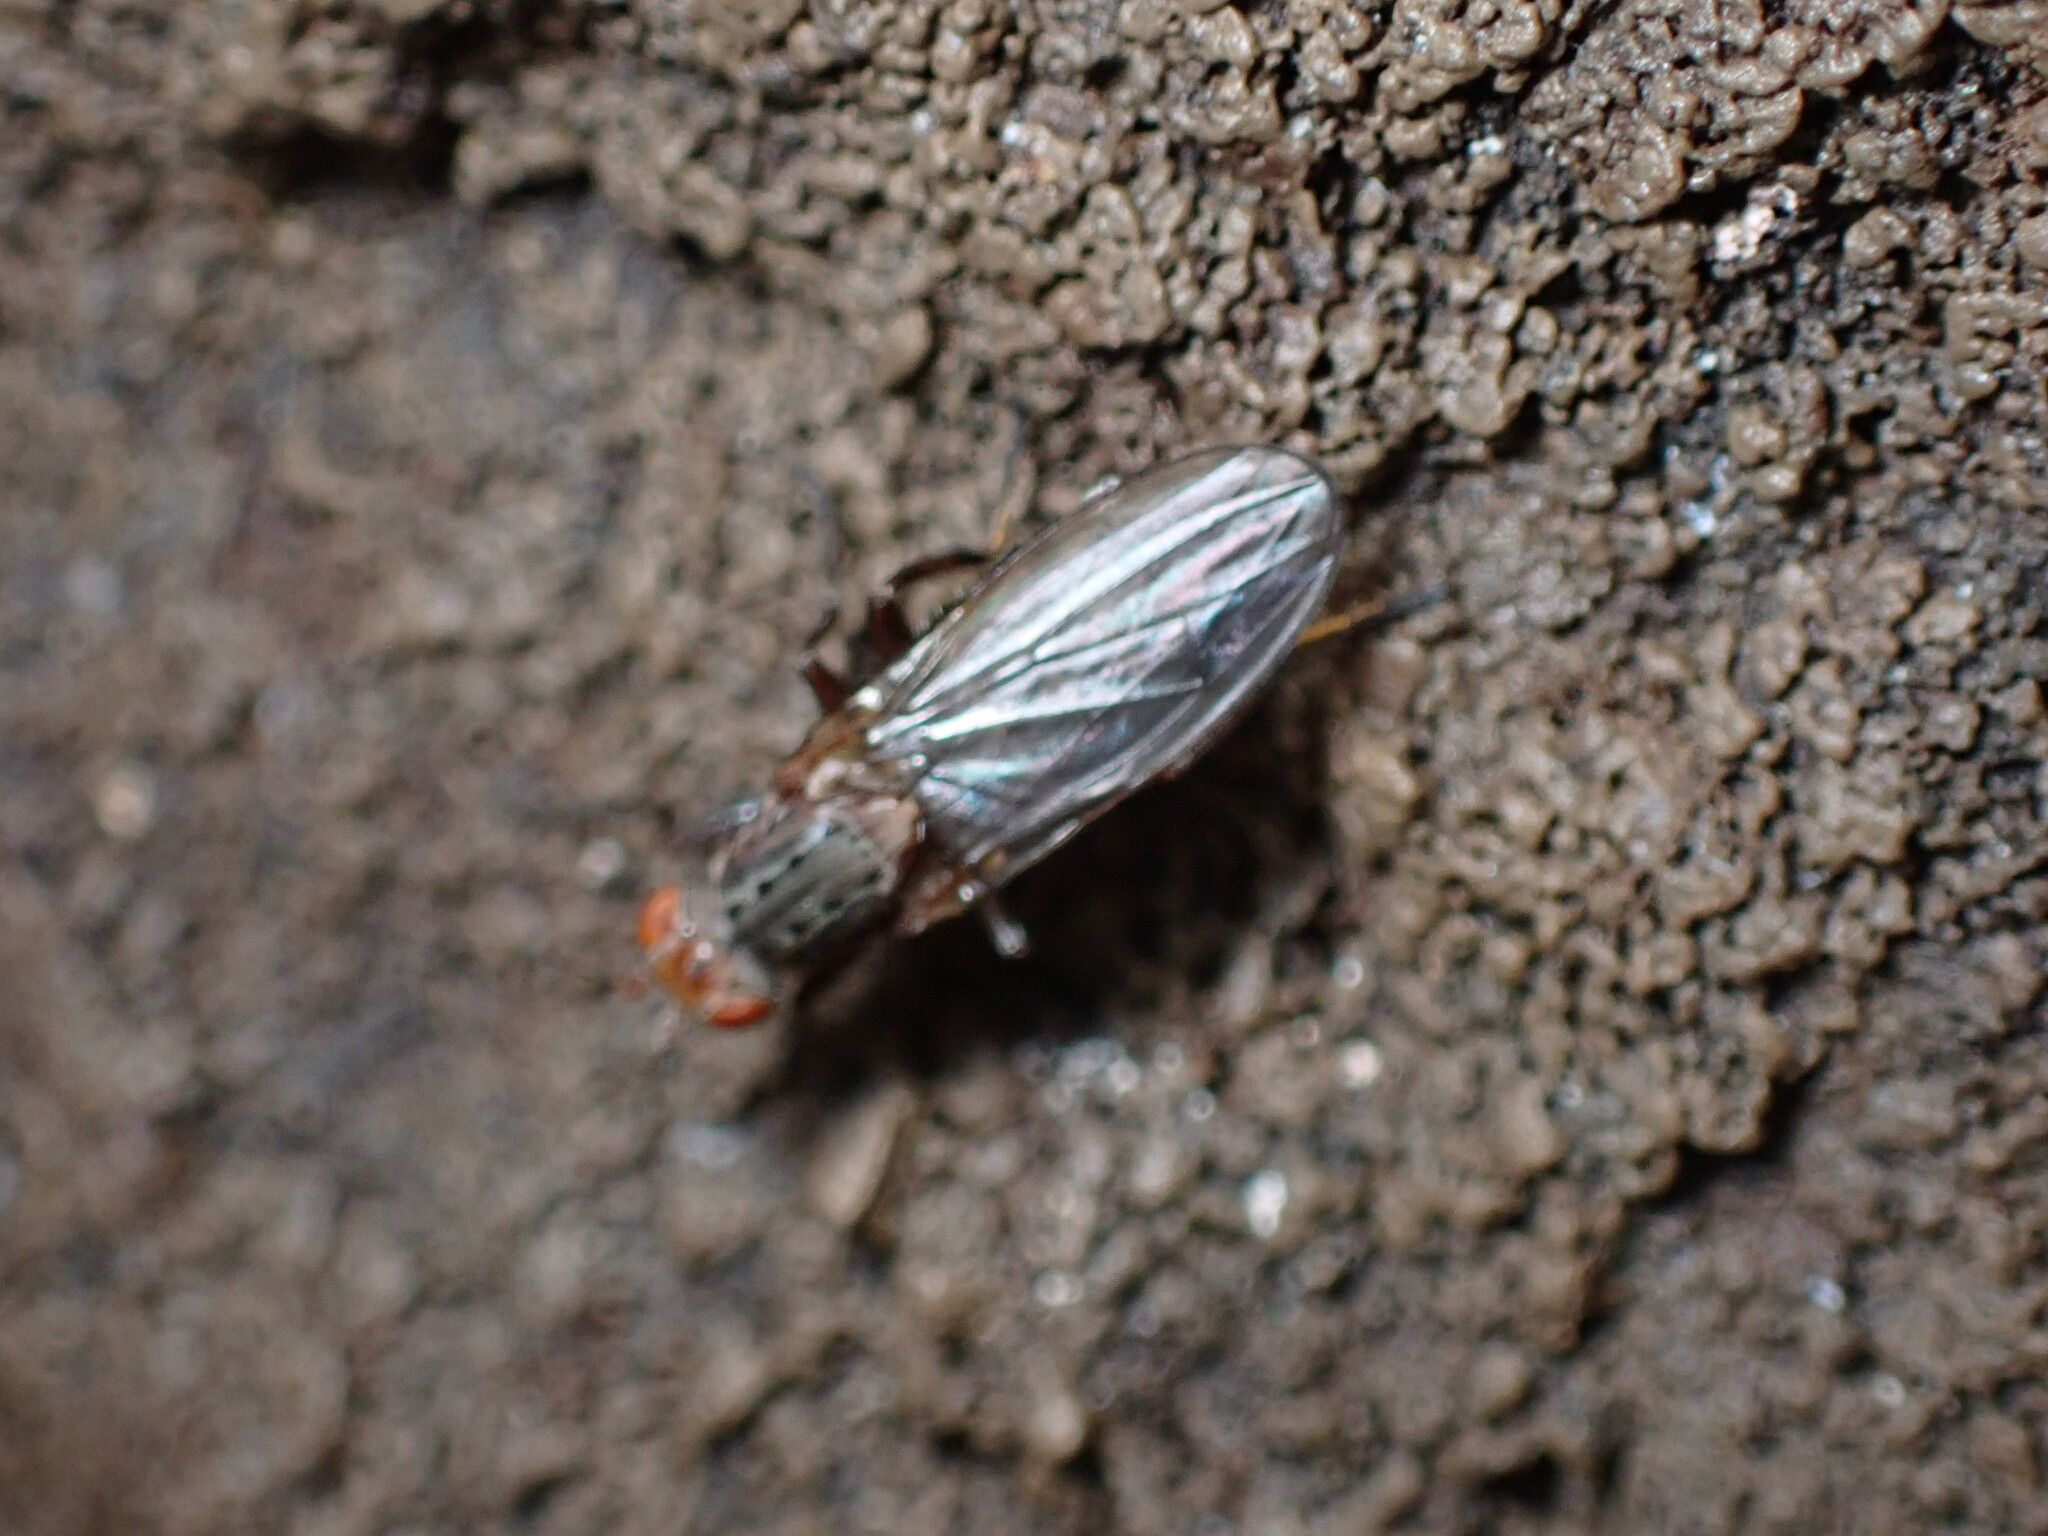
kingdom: Animalia
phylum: Arthropoda
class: Insecta
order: Diptera
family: Heleomyzidae
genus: Amoebaleria
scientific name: Amoebaleria defessa
